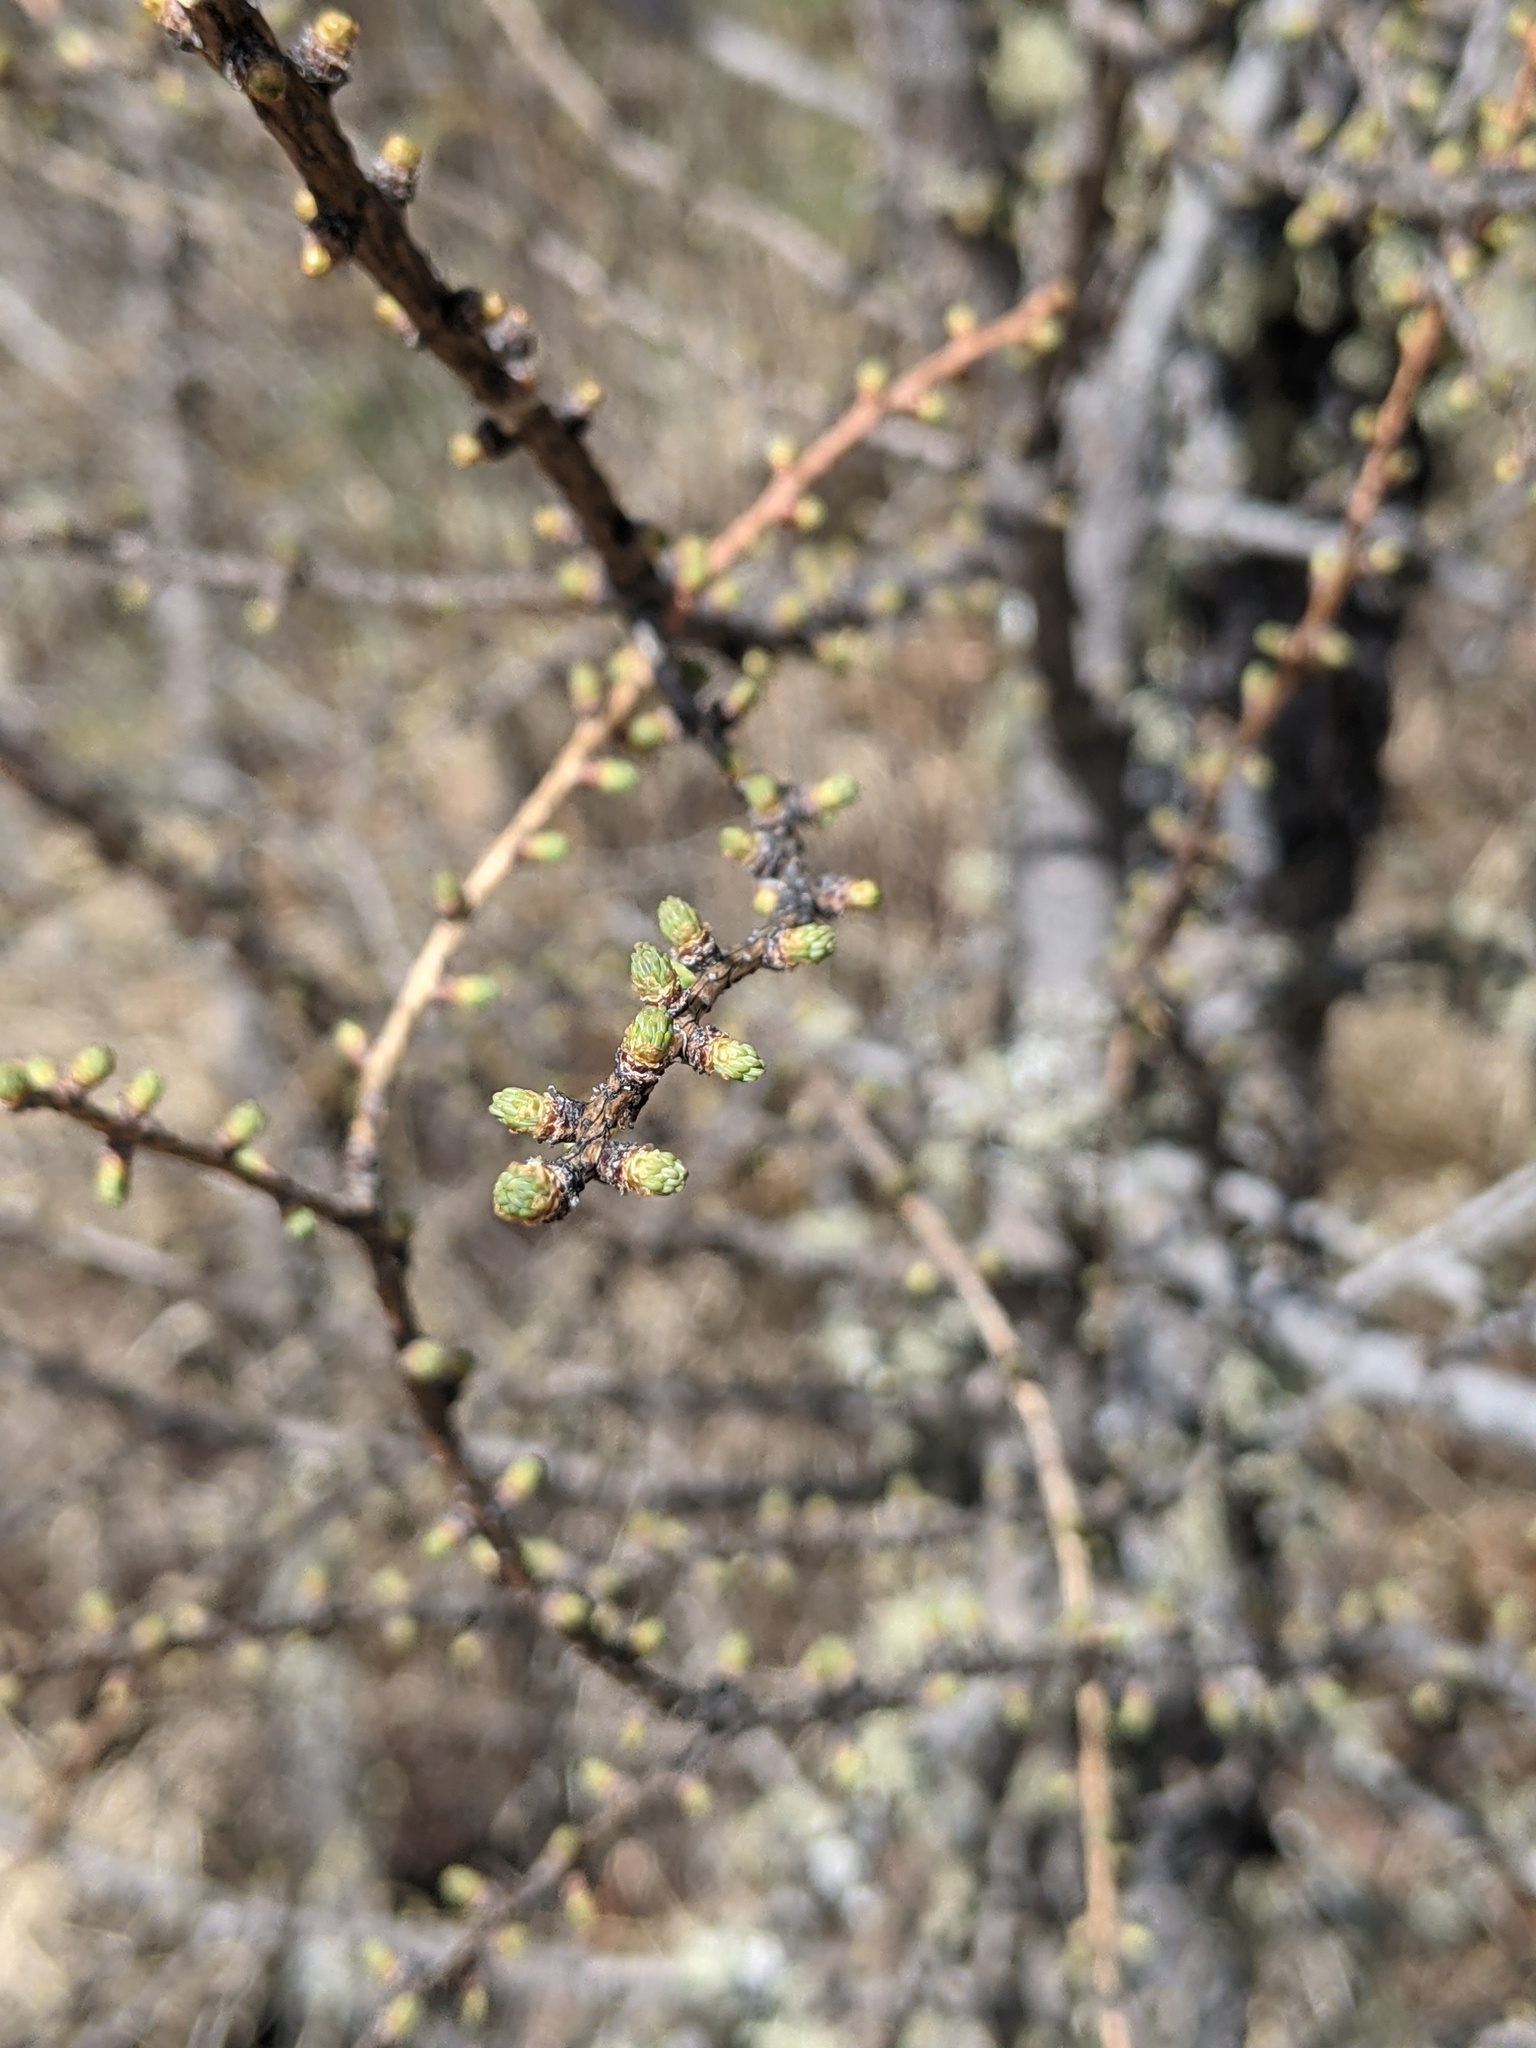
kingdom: Plantae
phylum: Tracheophyta
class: Pinopsida
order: Pinales
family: Pinaceae
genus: Larix
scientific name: Larix laricina
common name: American larch
